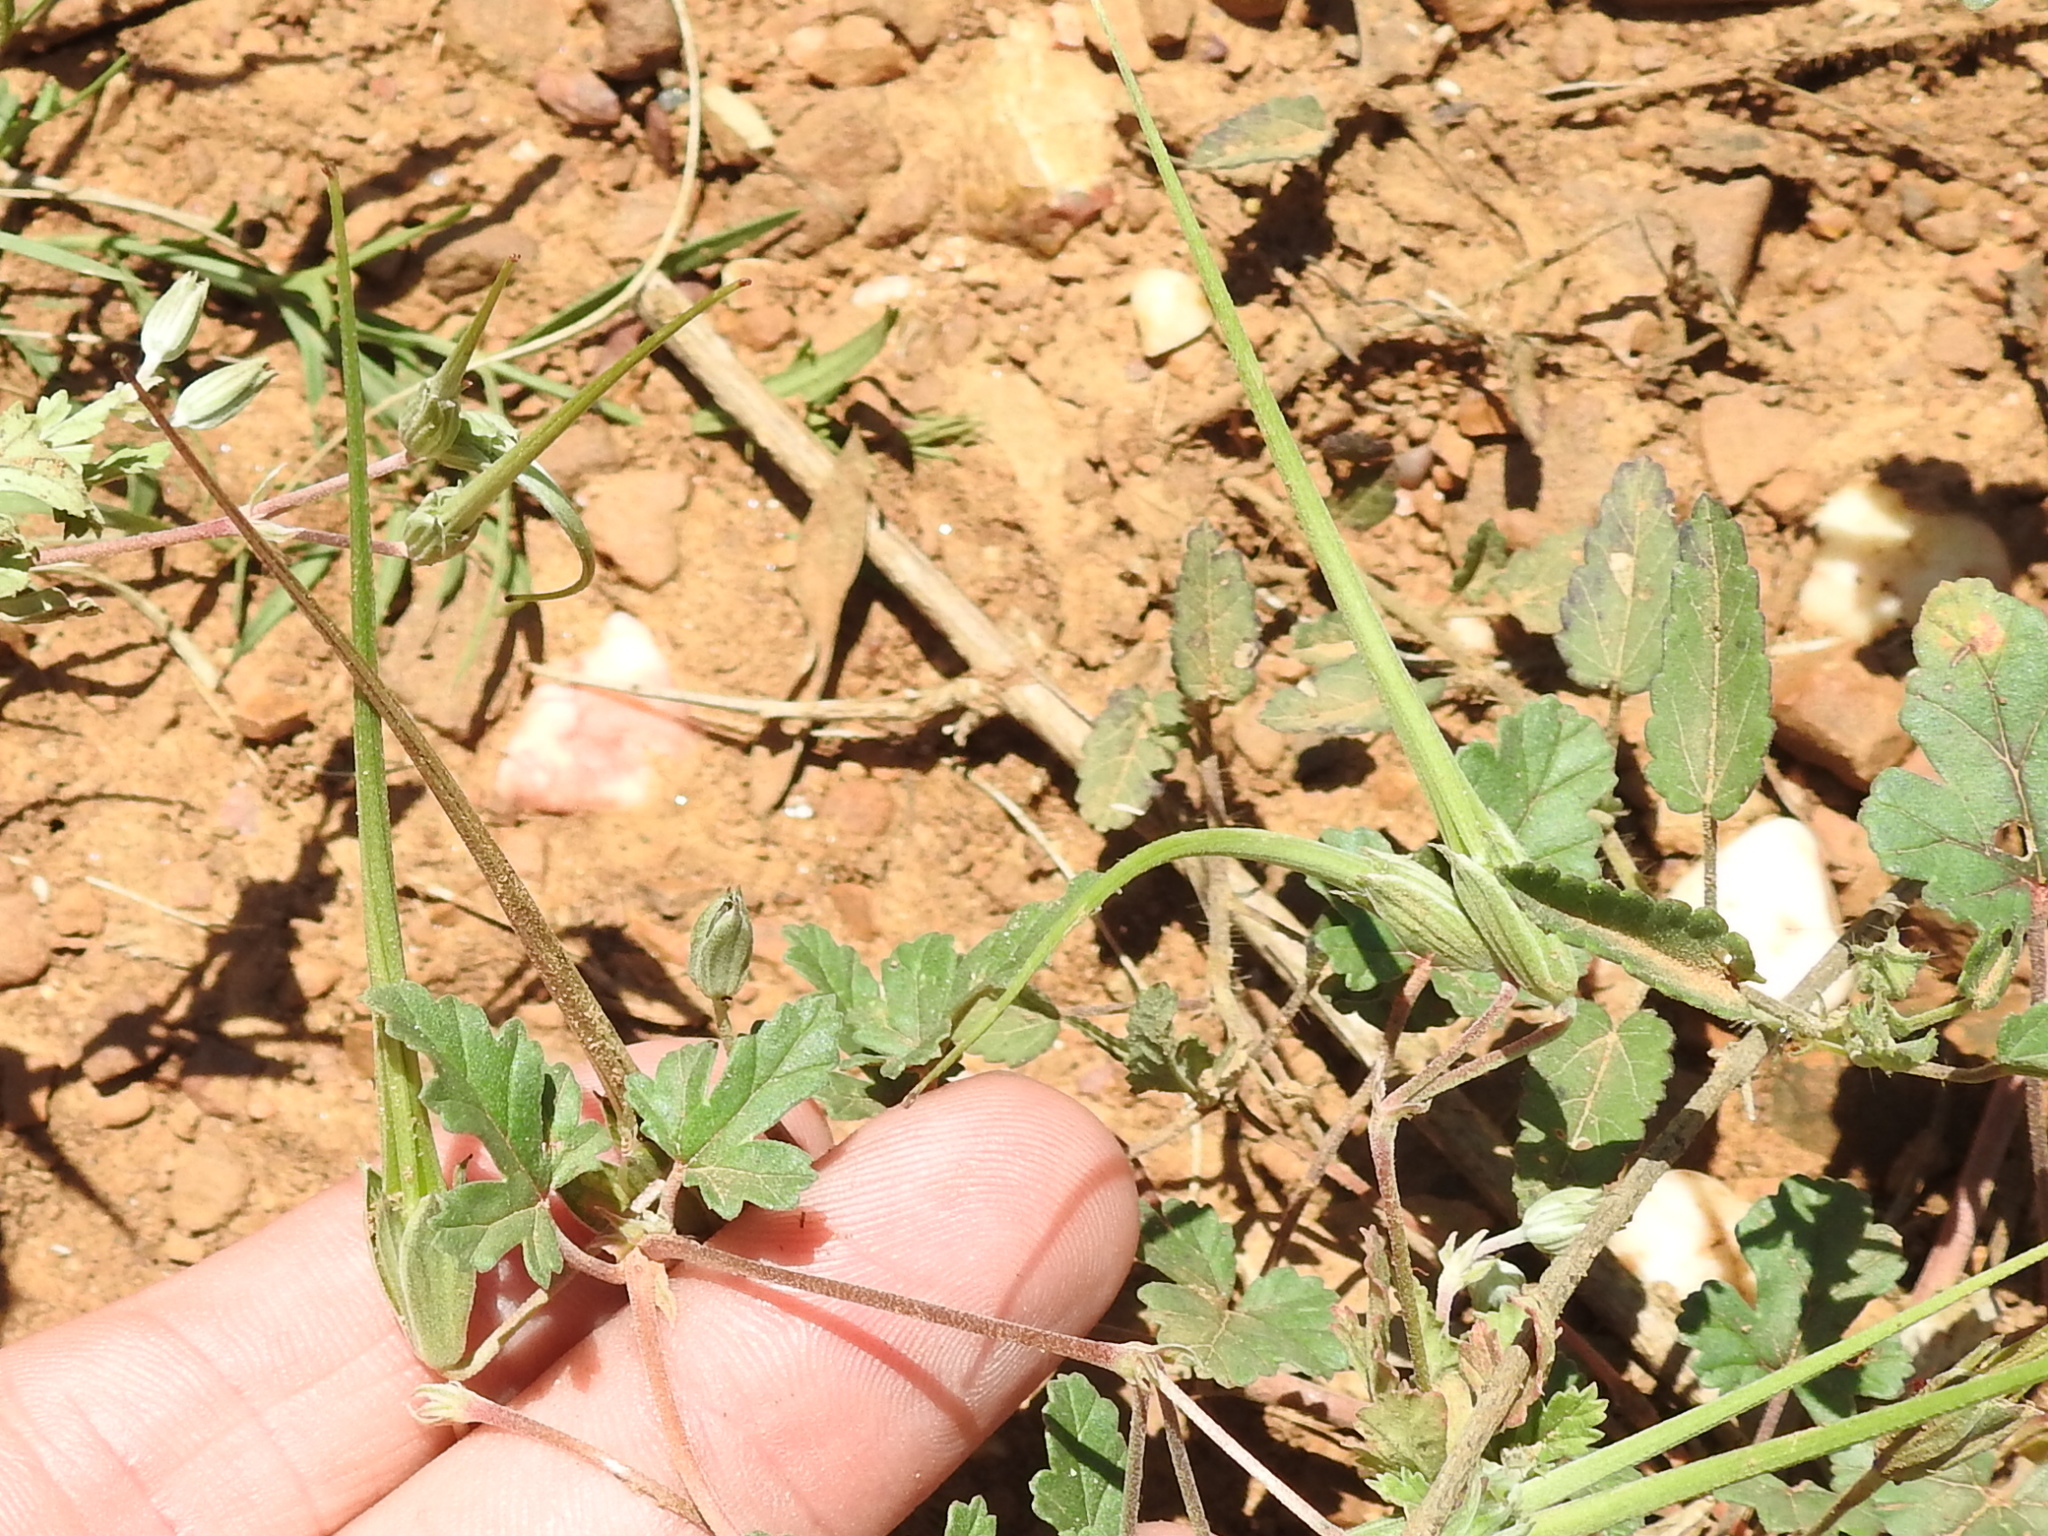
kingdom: Plantae
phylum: Tracheophyta
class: Magnoliopsida
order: Geraniales
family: Geraniaceae
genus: Erodium
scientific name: Erodium texanum
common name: Texas stork's-bill
